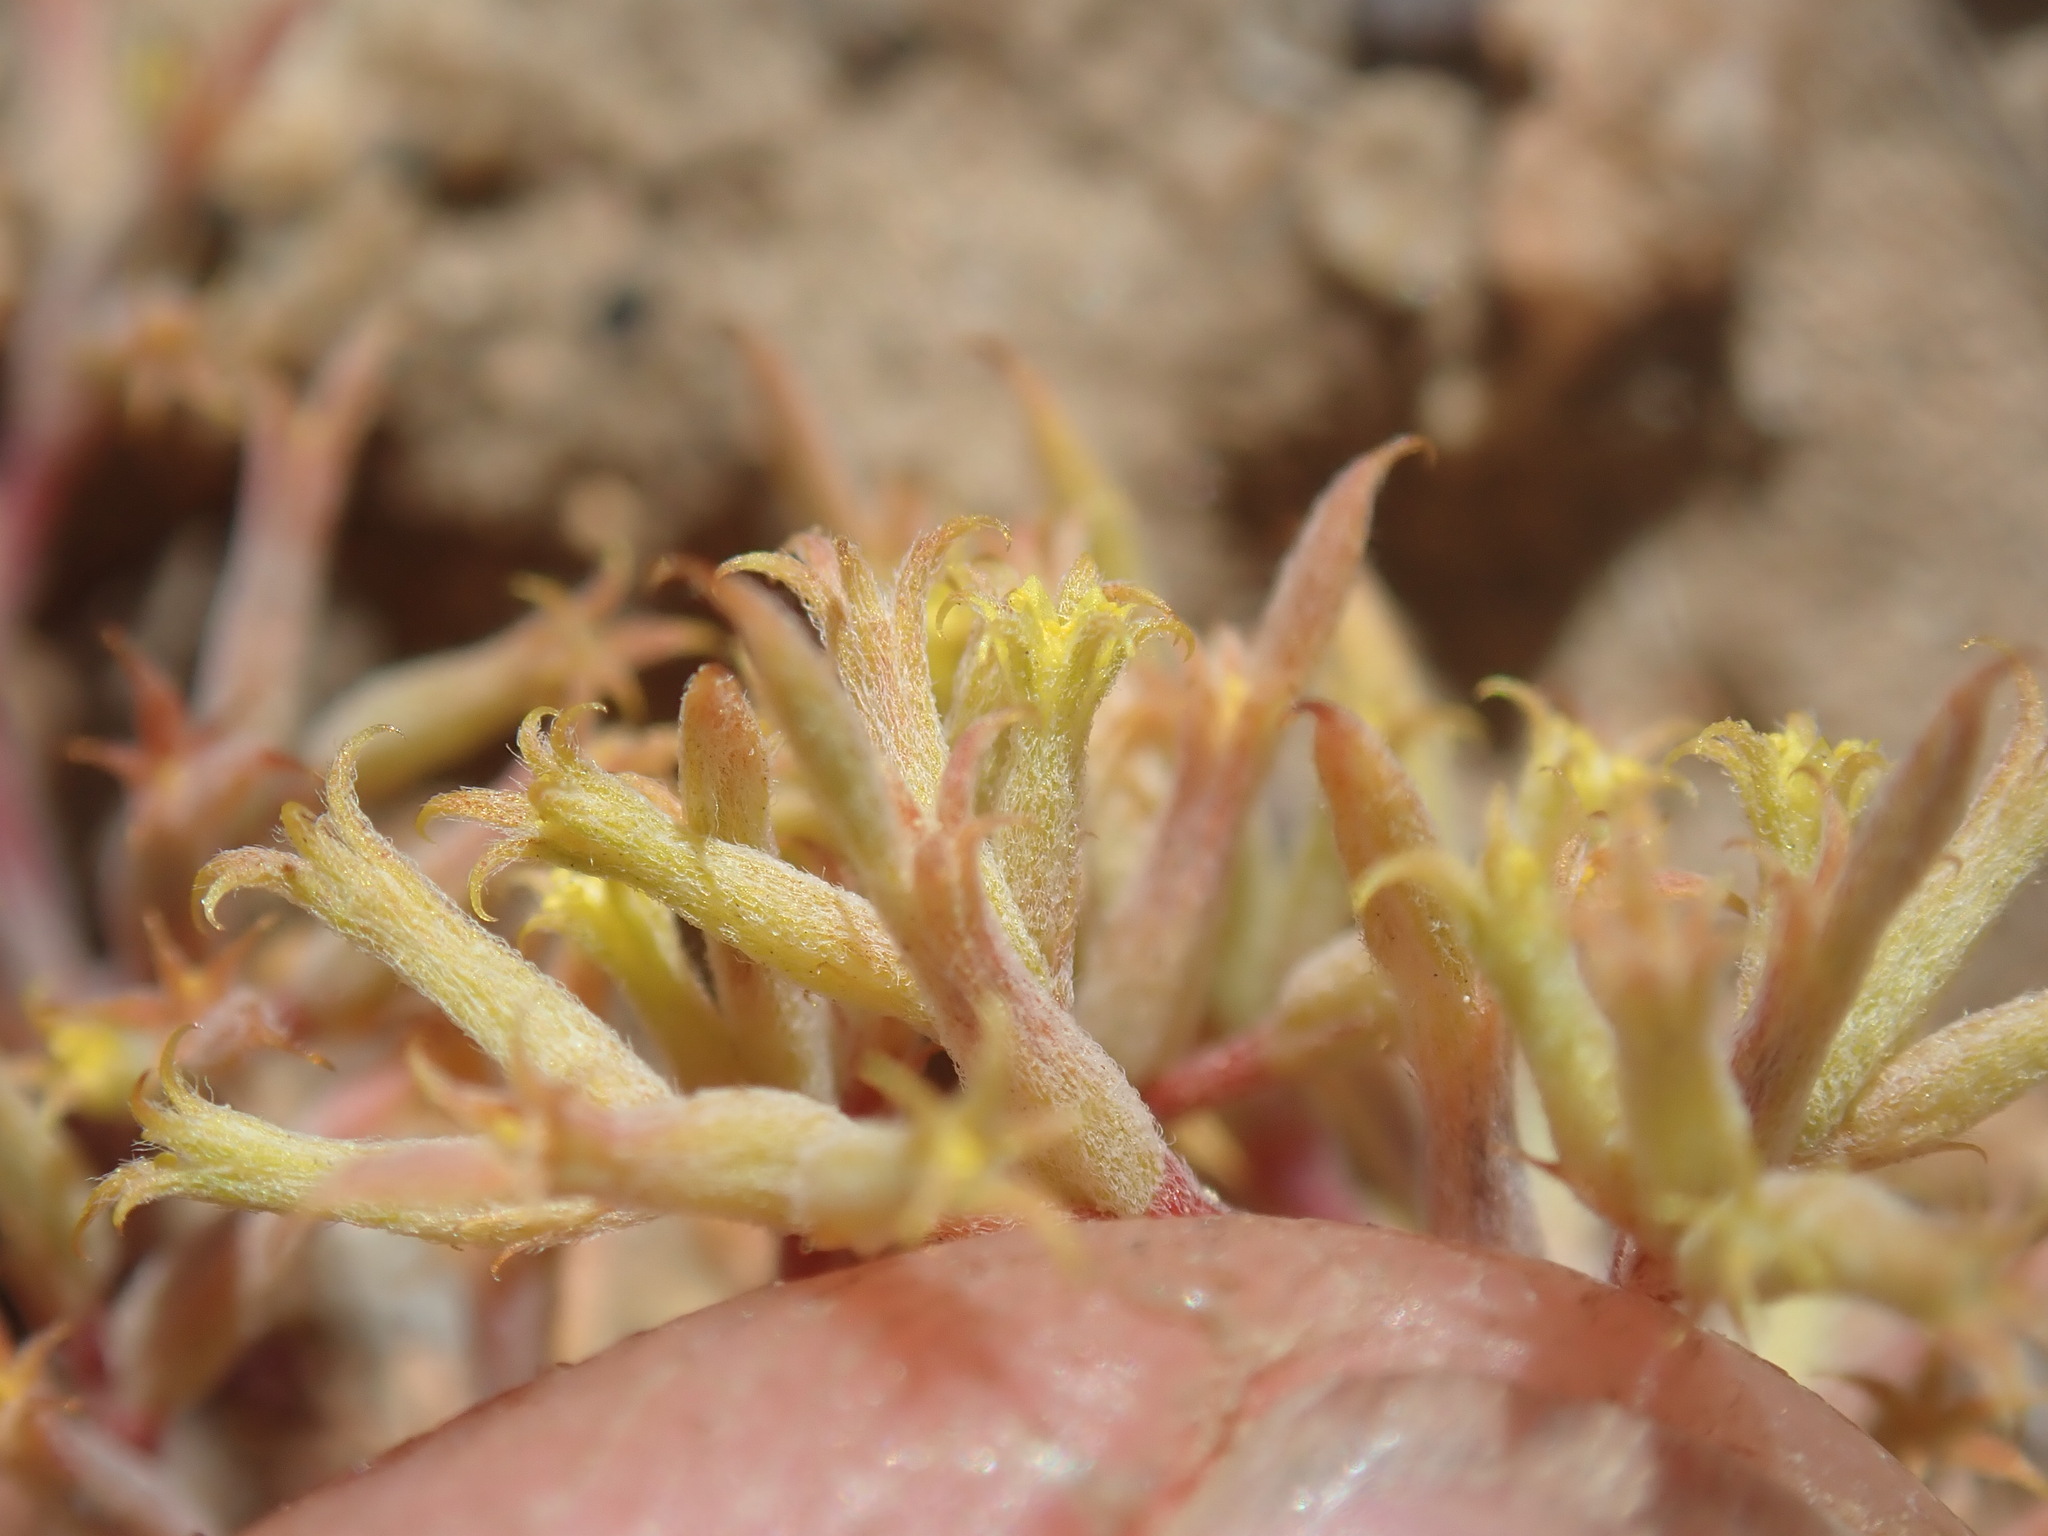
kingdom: Plantae
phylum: Tracheophyta
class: Magnoliopsida
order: Caryophyllales
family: Polygonaceae
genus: Chorizanthe
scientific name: Chorizanthe watsonii
